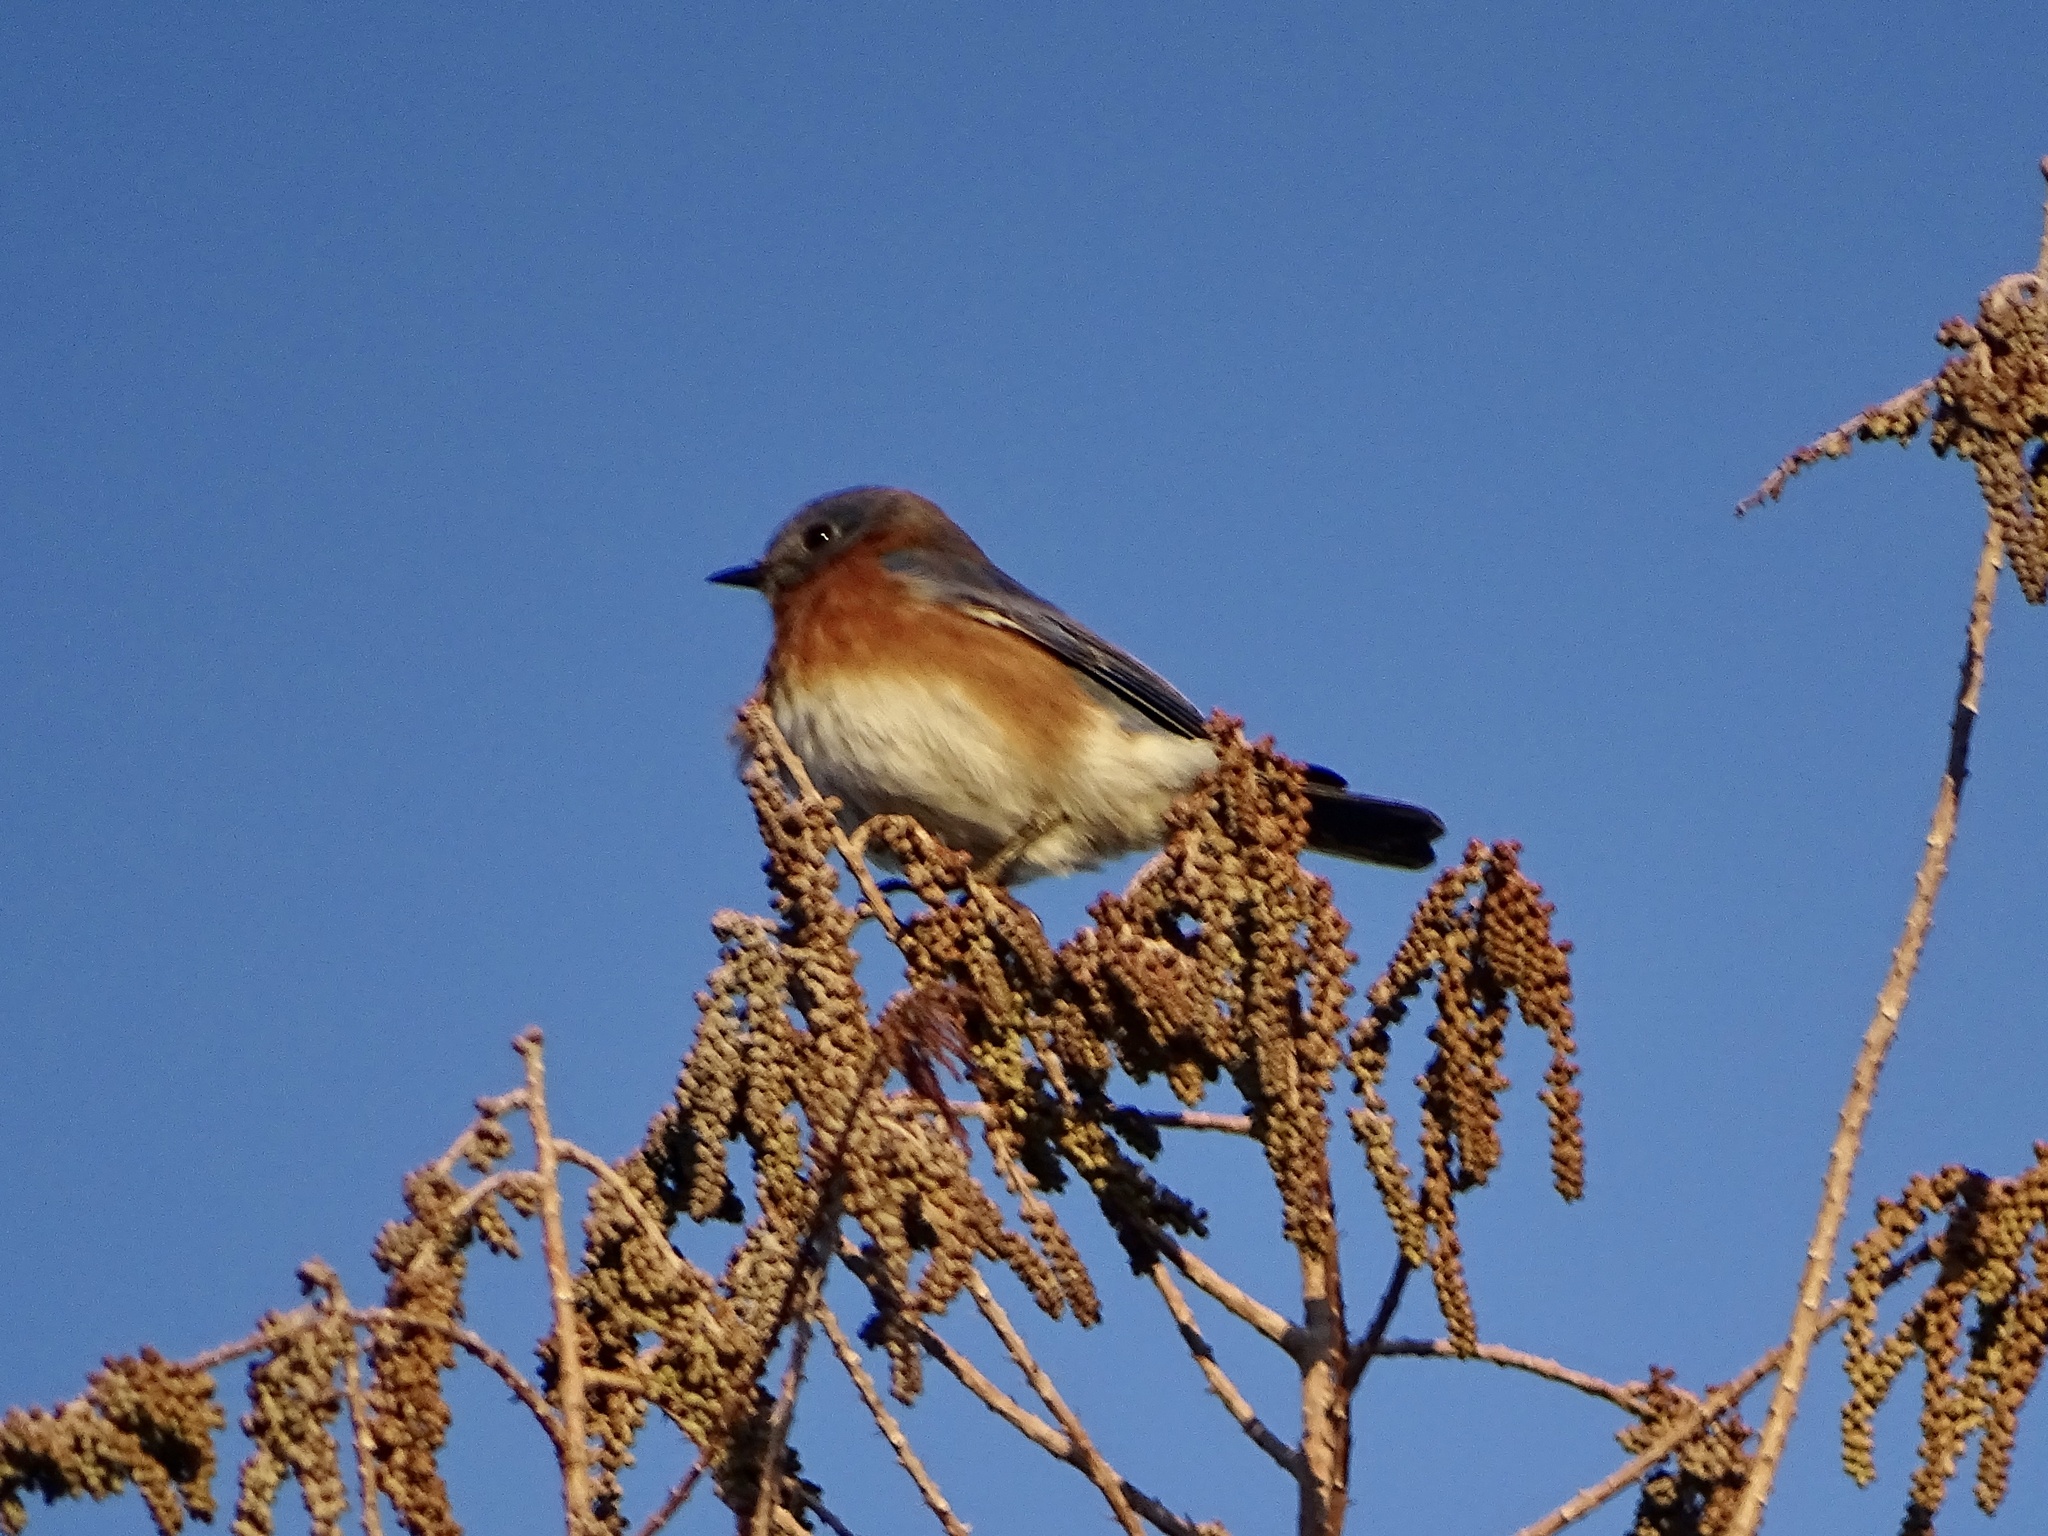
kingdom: Animalia
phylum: Chordata
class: Aves
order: Passeriformes
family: Turdidae
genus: Sialia
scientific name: Sialia sialis
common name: Eastern bluebird
